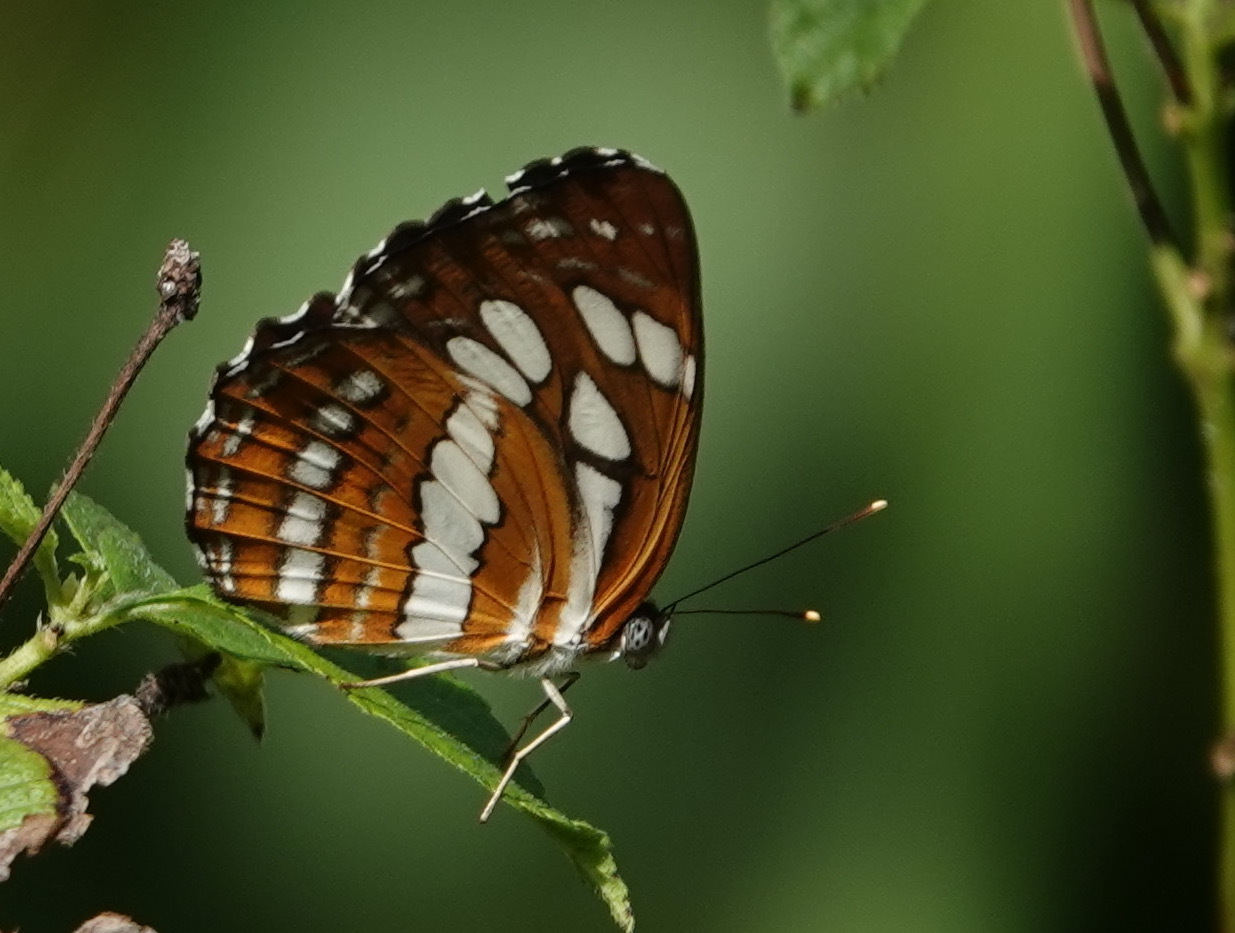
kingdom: Animalia
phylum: Arthropoda
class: Insecta
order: Lepidoptera
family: Nymphalidae
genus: Neptis
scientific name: Neptis hylas
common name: Common sailer
